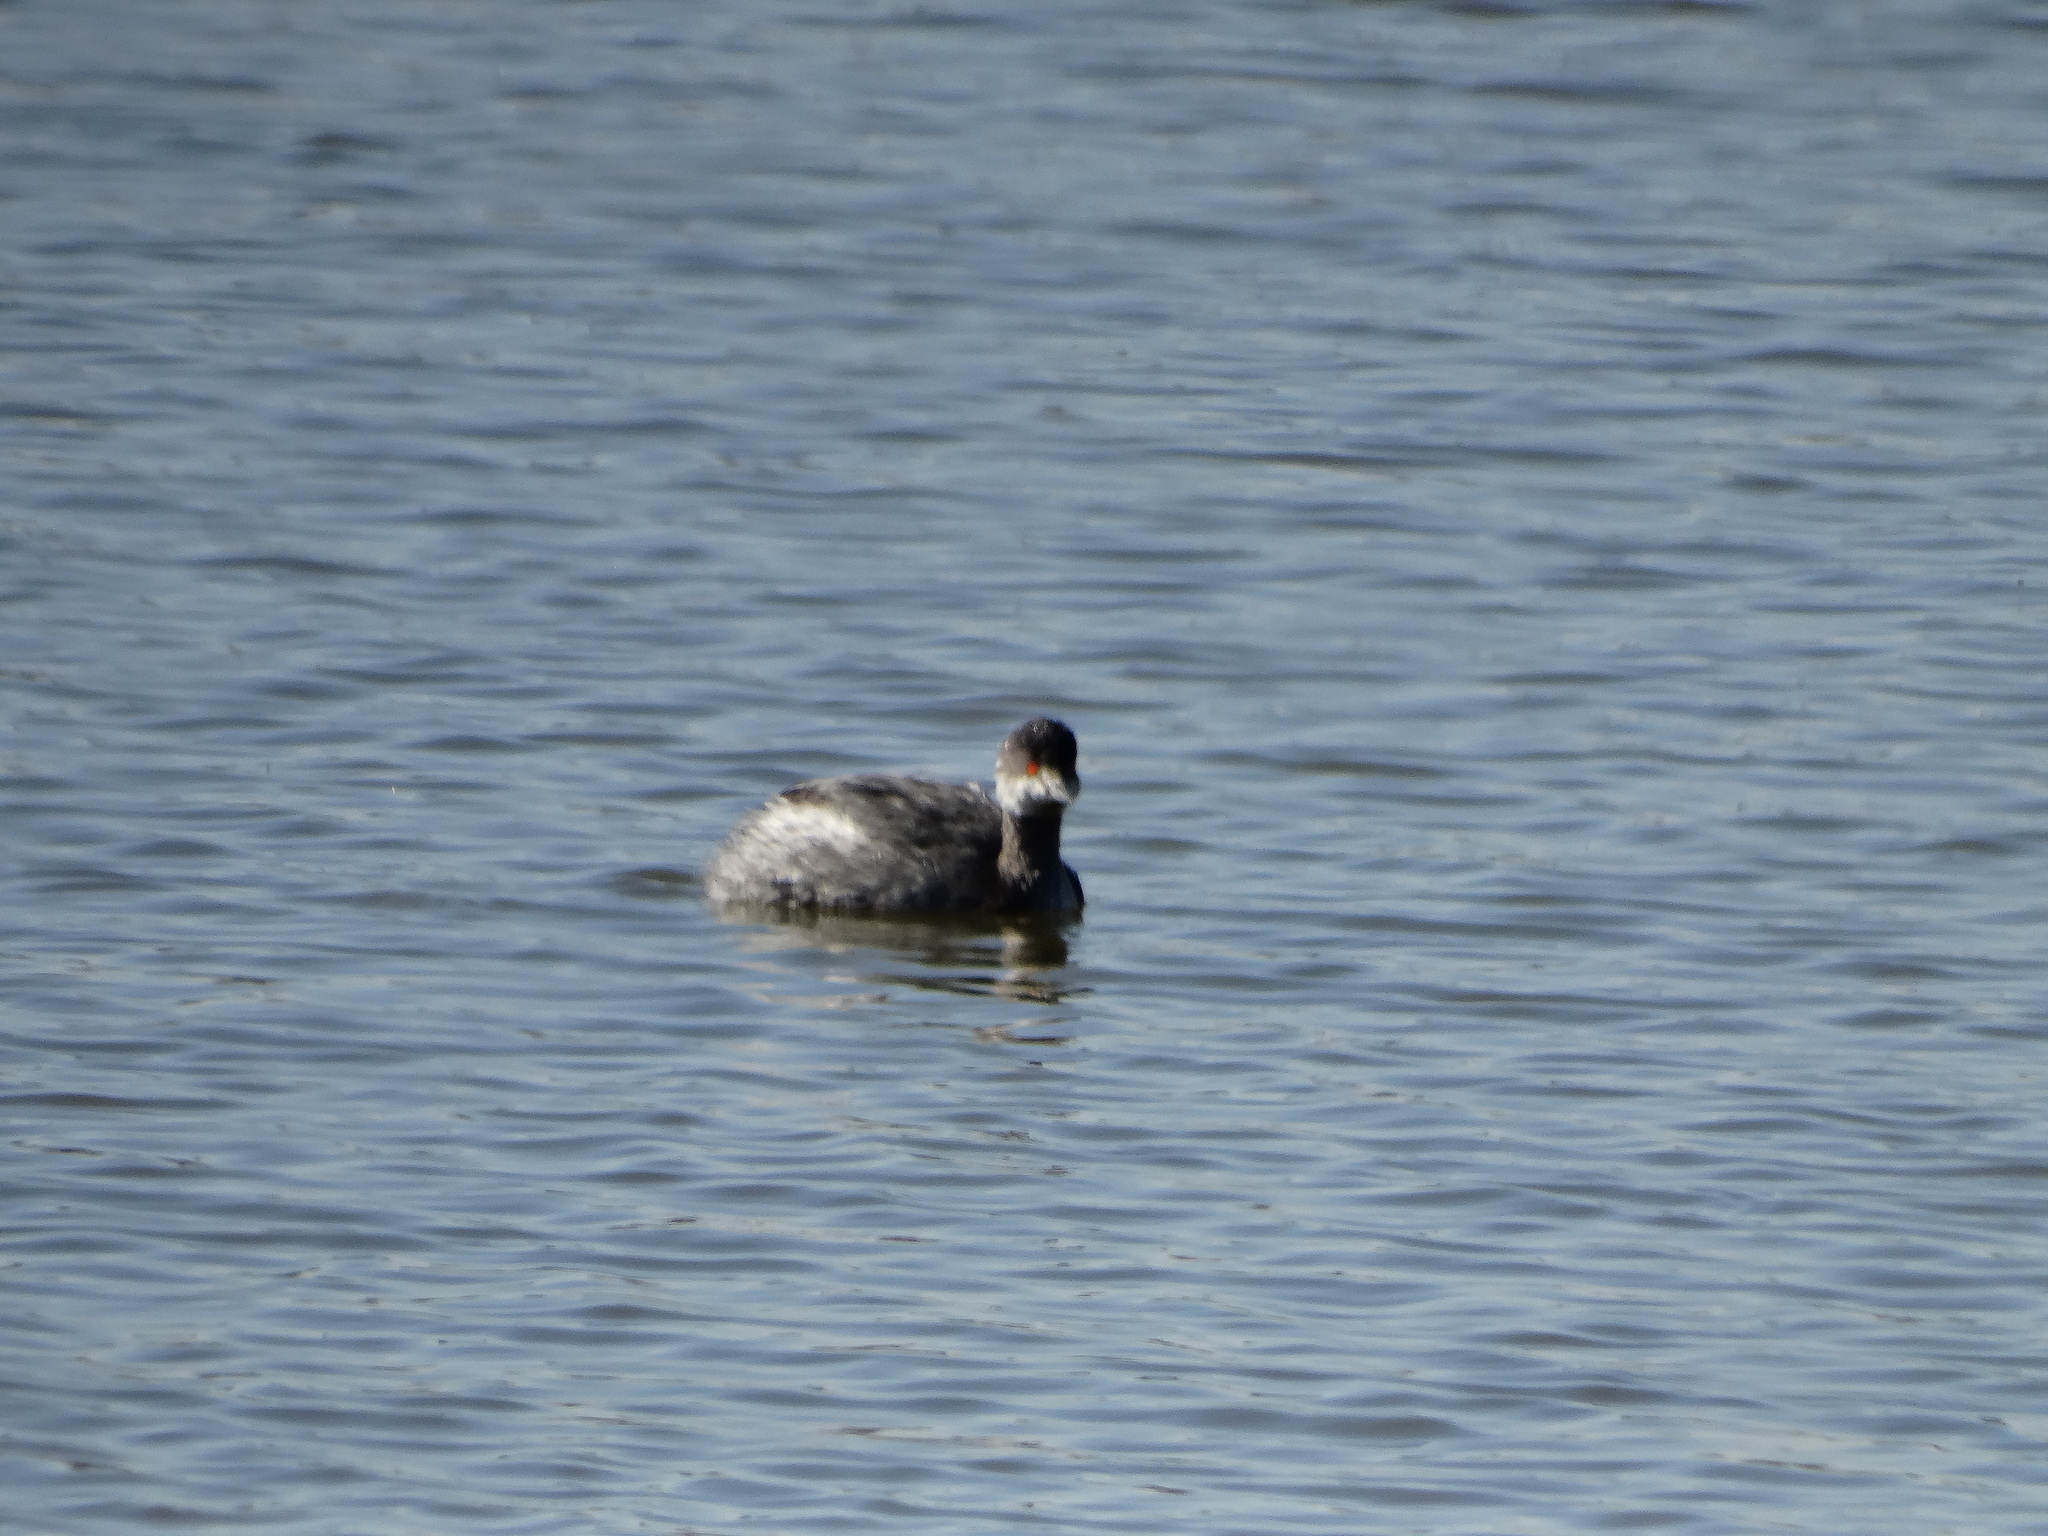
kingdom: Animalia
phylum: Chordata
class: Aves
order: Podicipediformes
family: Podicipedidae
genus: Podiceps
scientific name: Podiceps nigricollis
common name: Black-necked grebe
